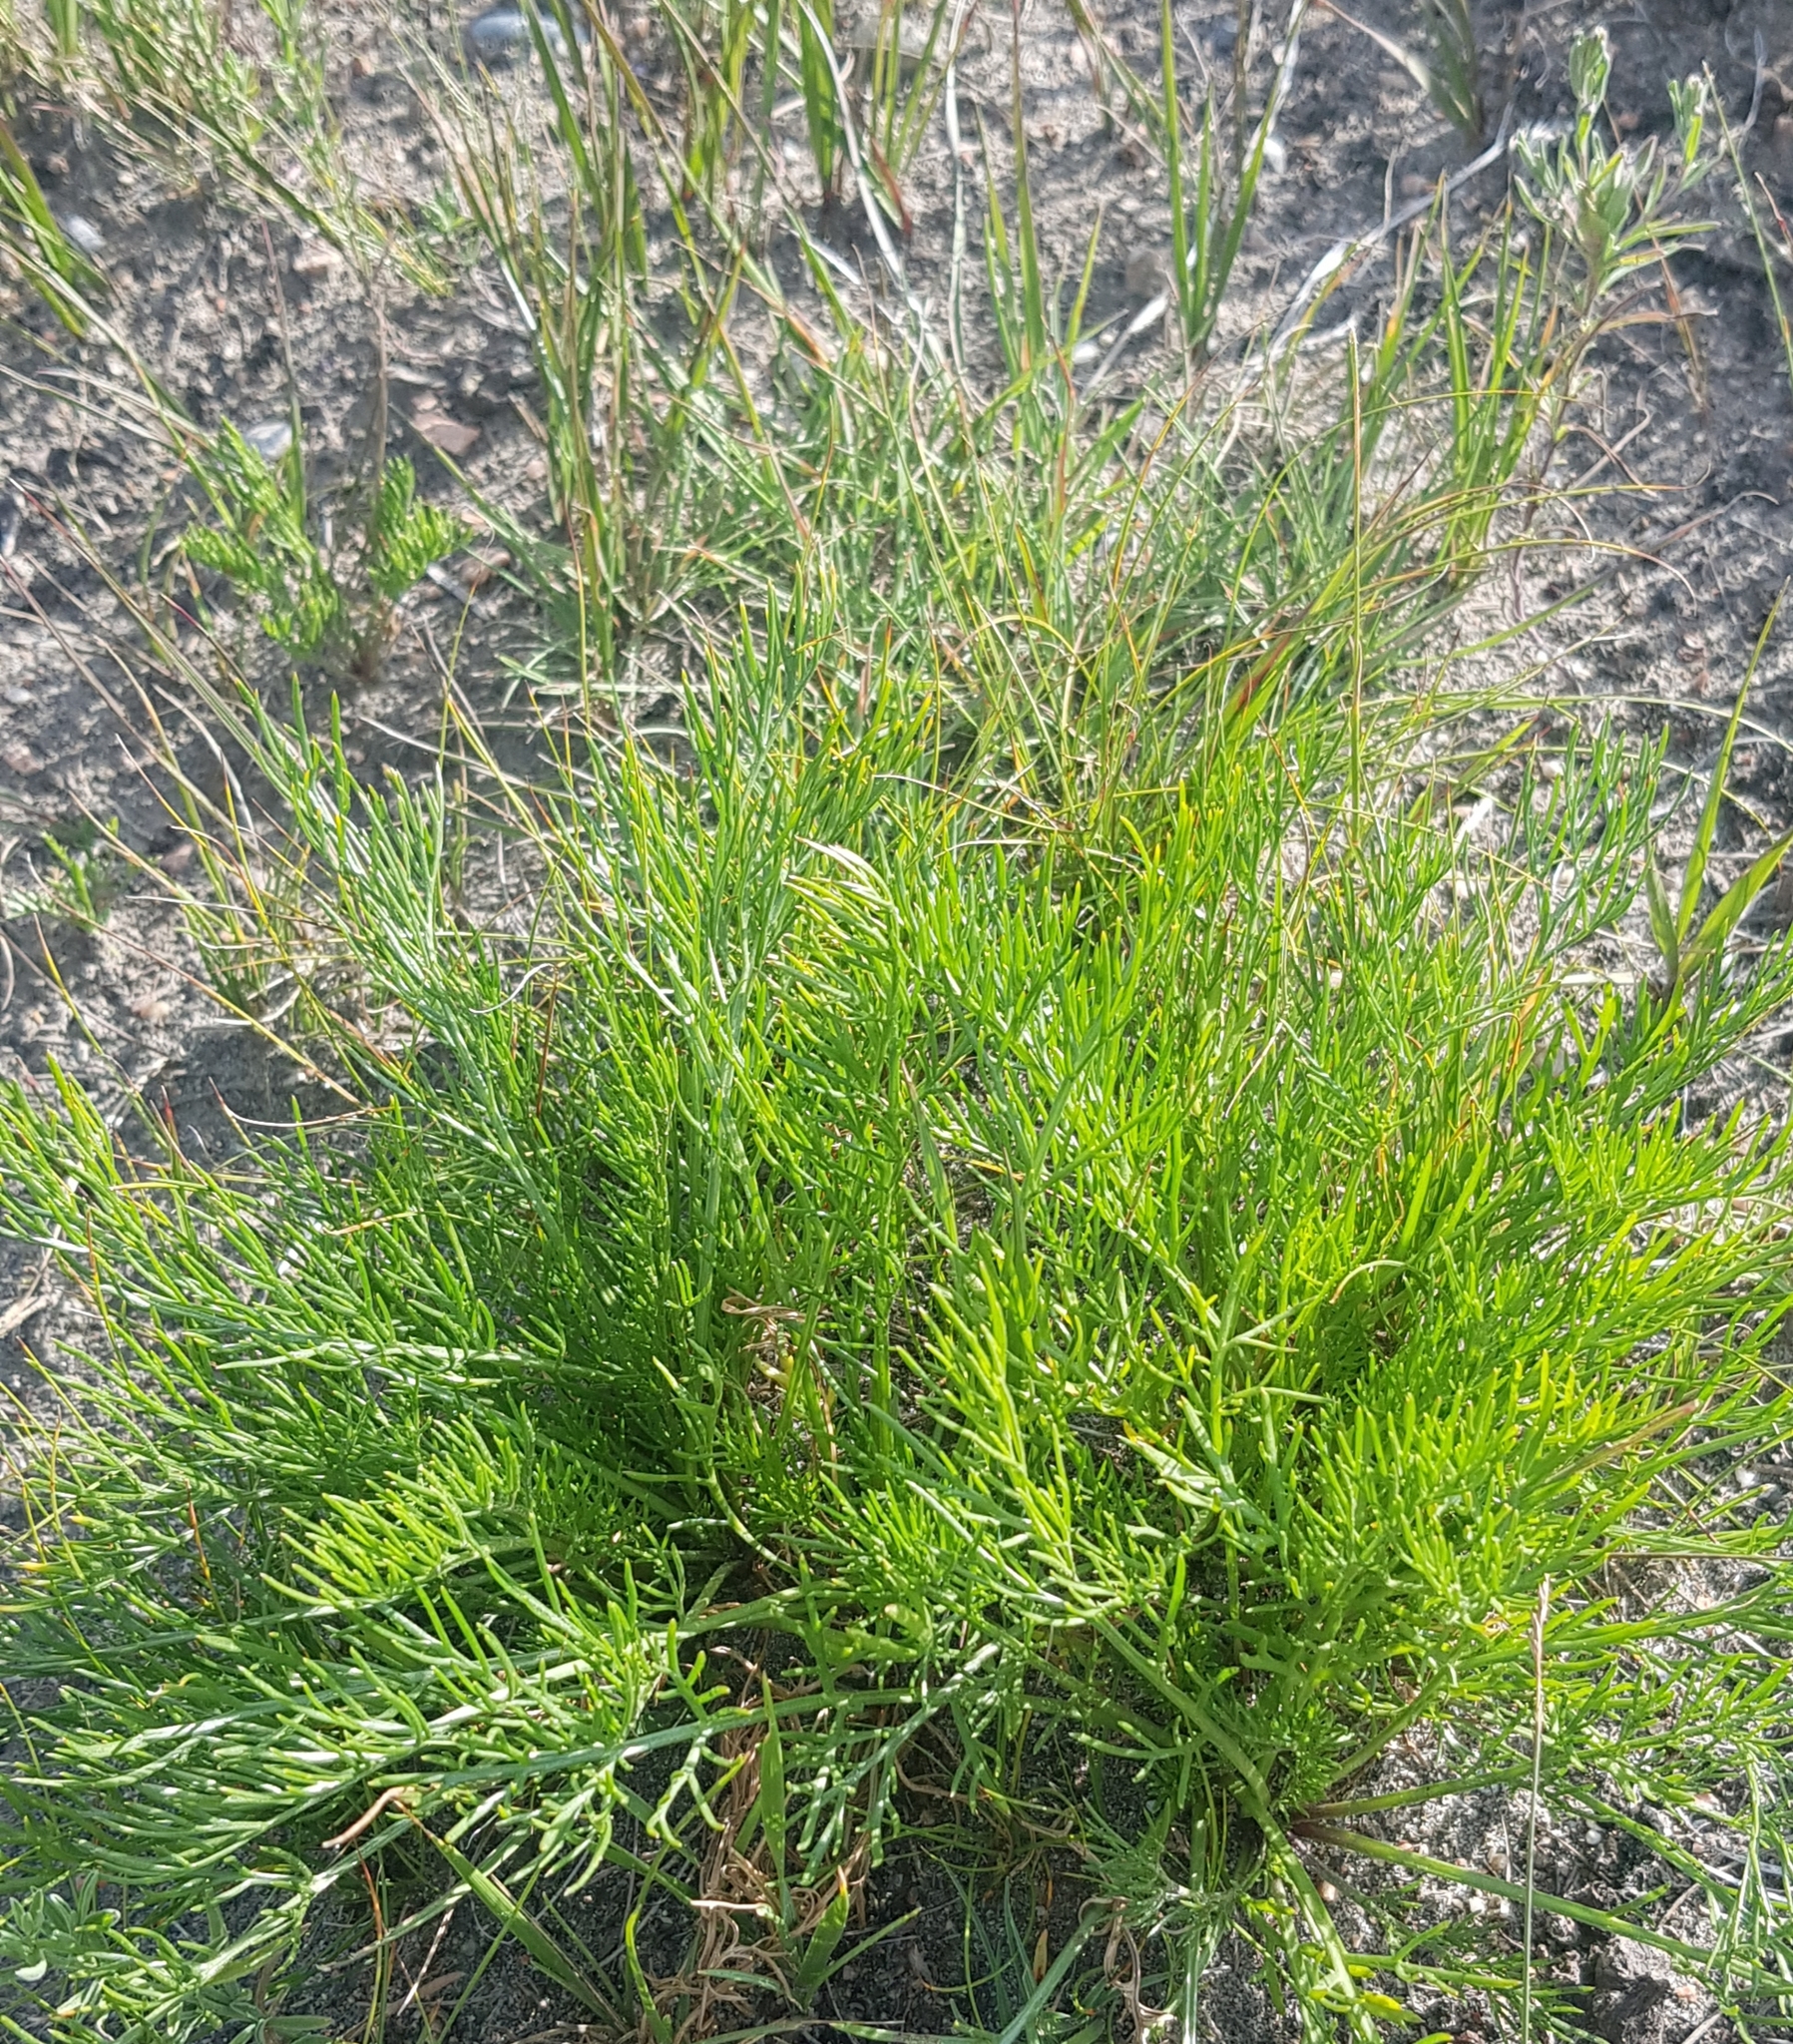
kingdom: Plantae
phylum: Tracheophyta
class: Magnoliopsida
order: Asterales
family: Asteraceae
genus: Artemisia
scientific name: Artemisia pubescens
